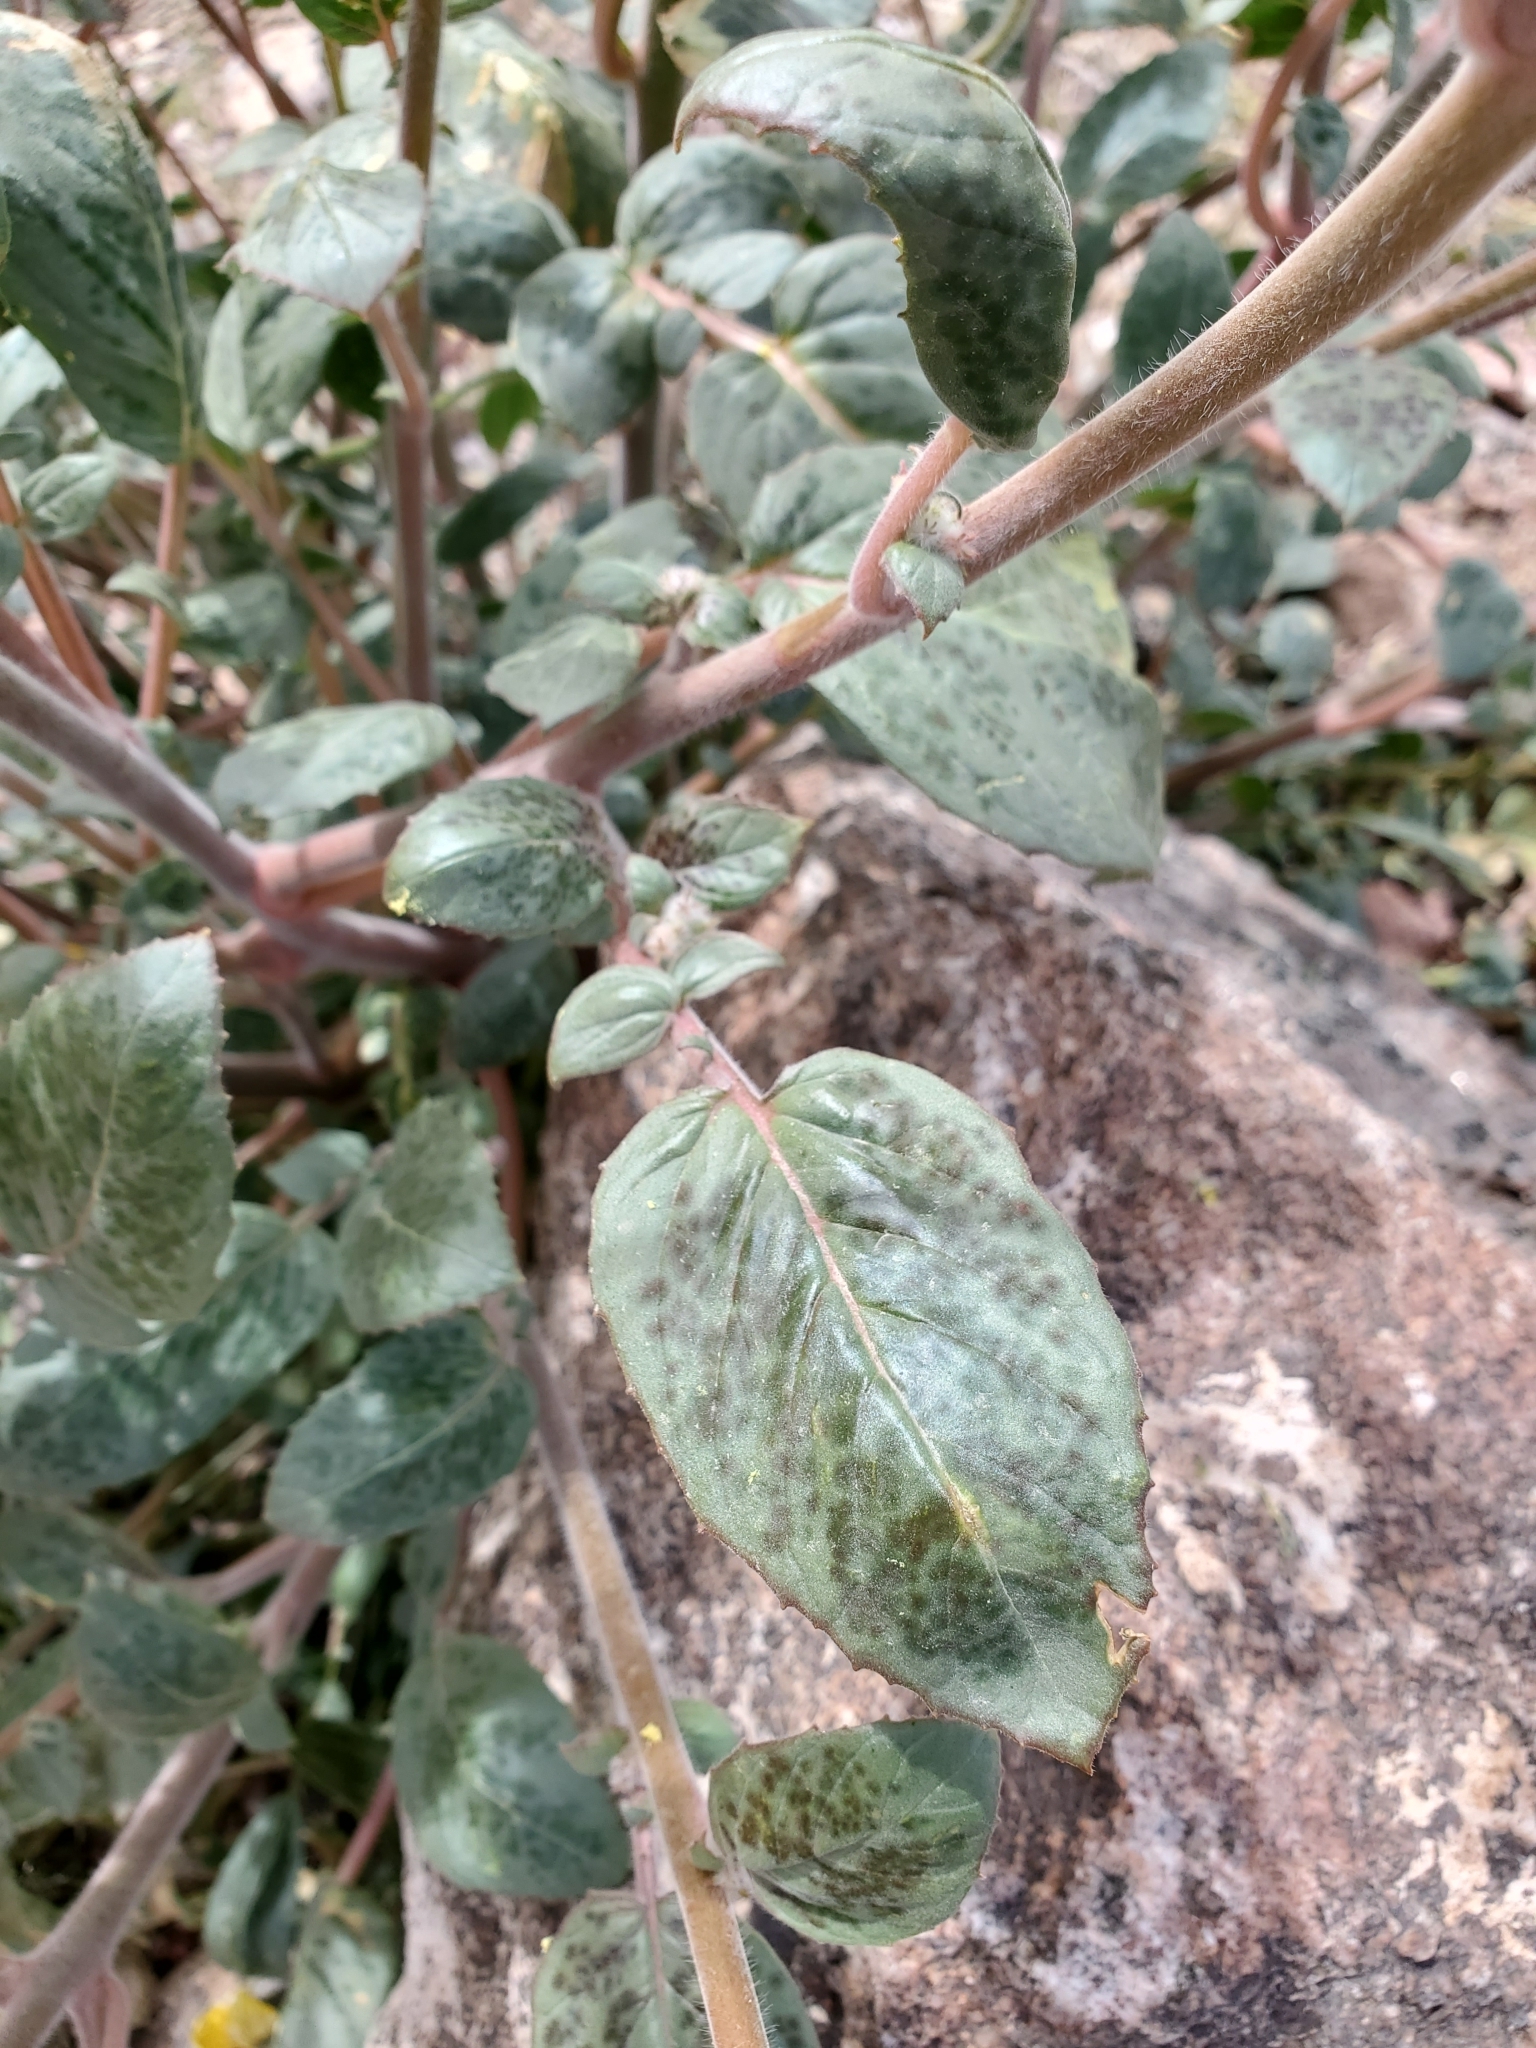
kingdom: Plantae
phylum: Tracheophyta
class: Magnoliopsida
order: Myrtales
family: Onagraceae
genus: Chylismia
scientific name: Chylismia brevipes
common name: Yellow cups
